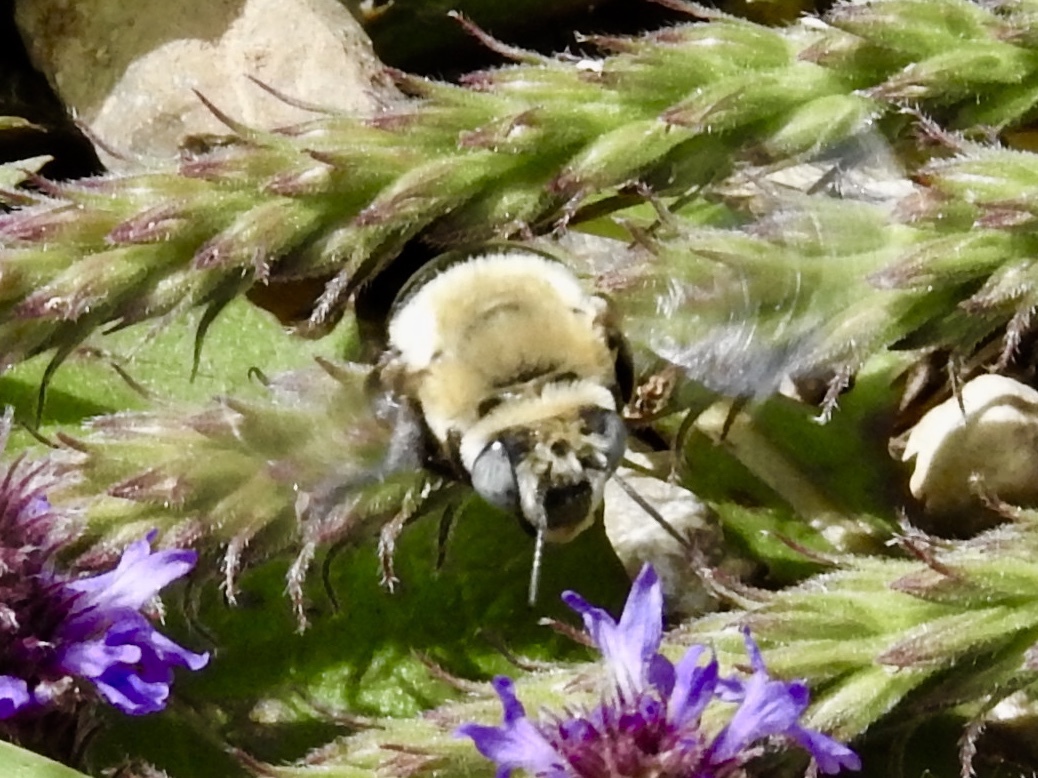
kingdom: Animalia
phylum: Arthropoda
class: Insecta
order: Hymenoptera
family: Apidae
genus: Anthophora
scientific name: Anthophora montana
